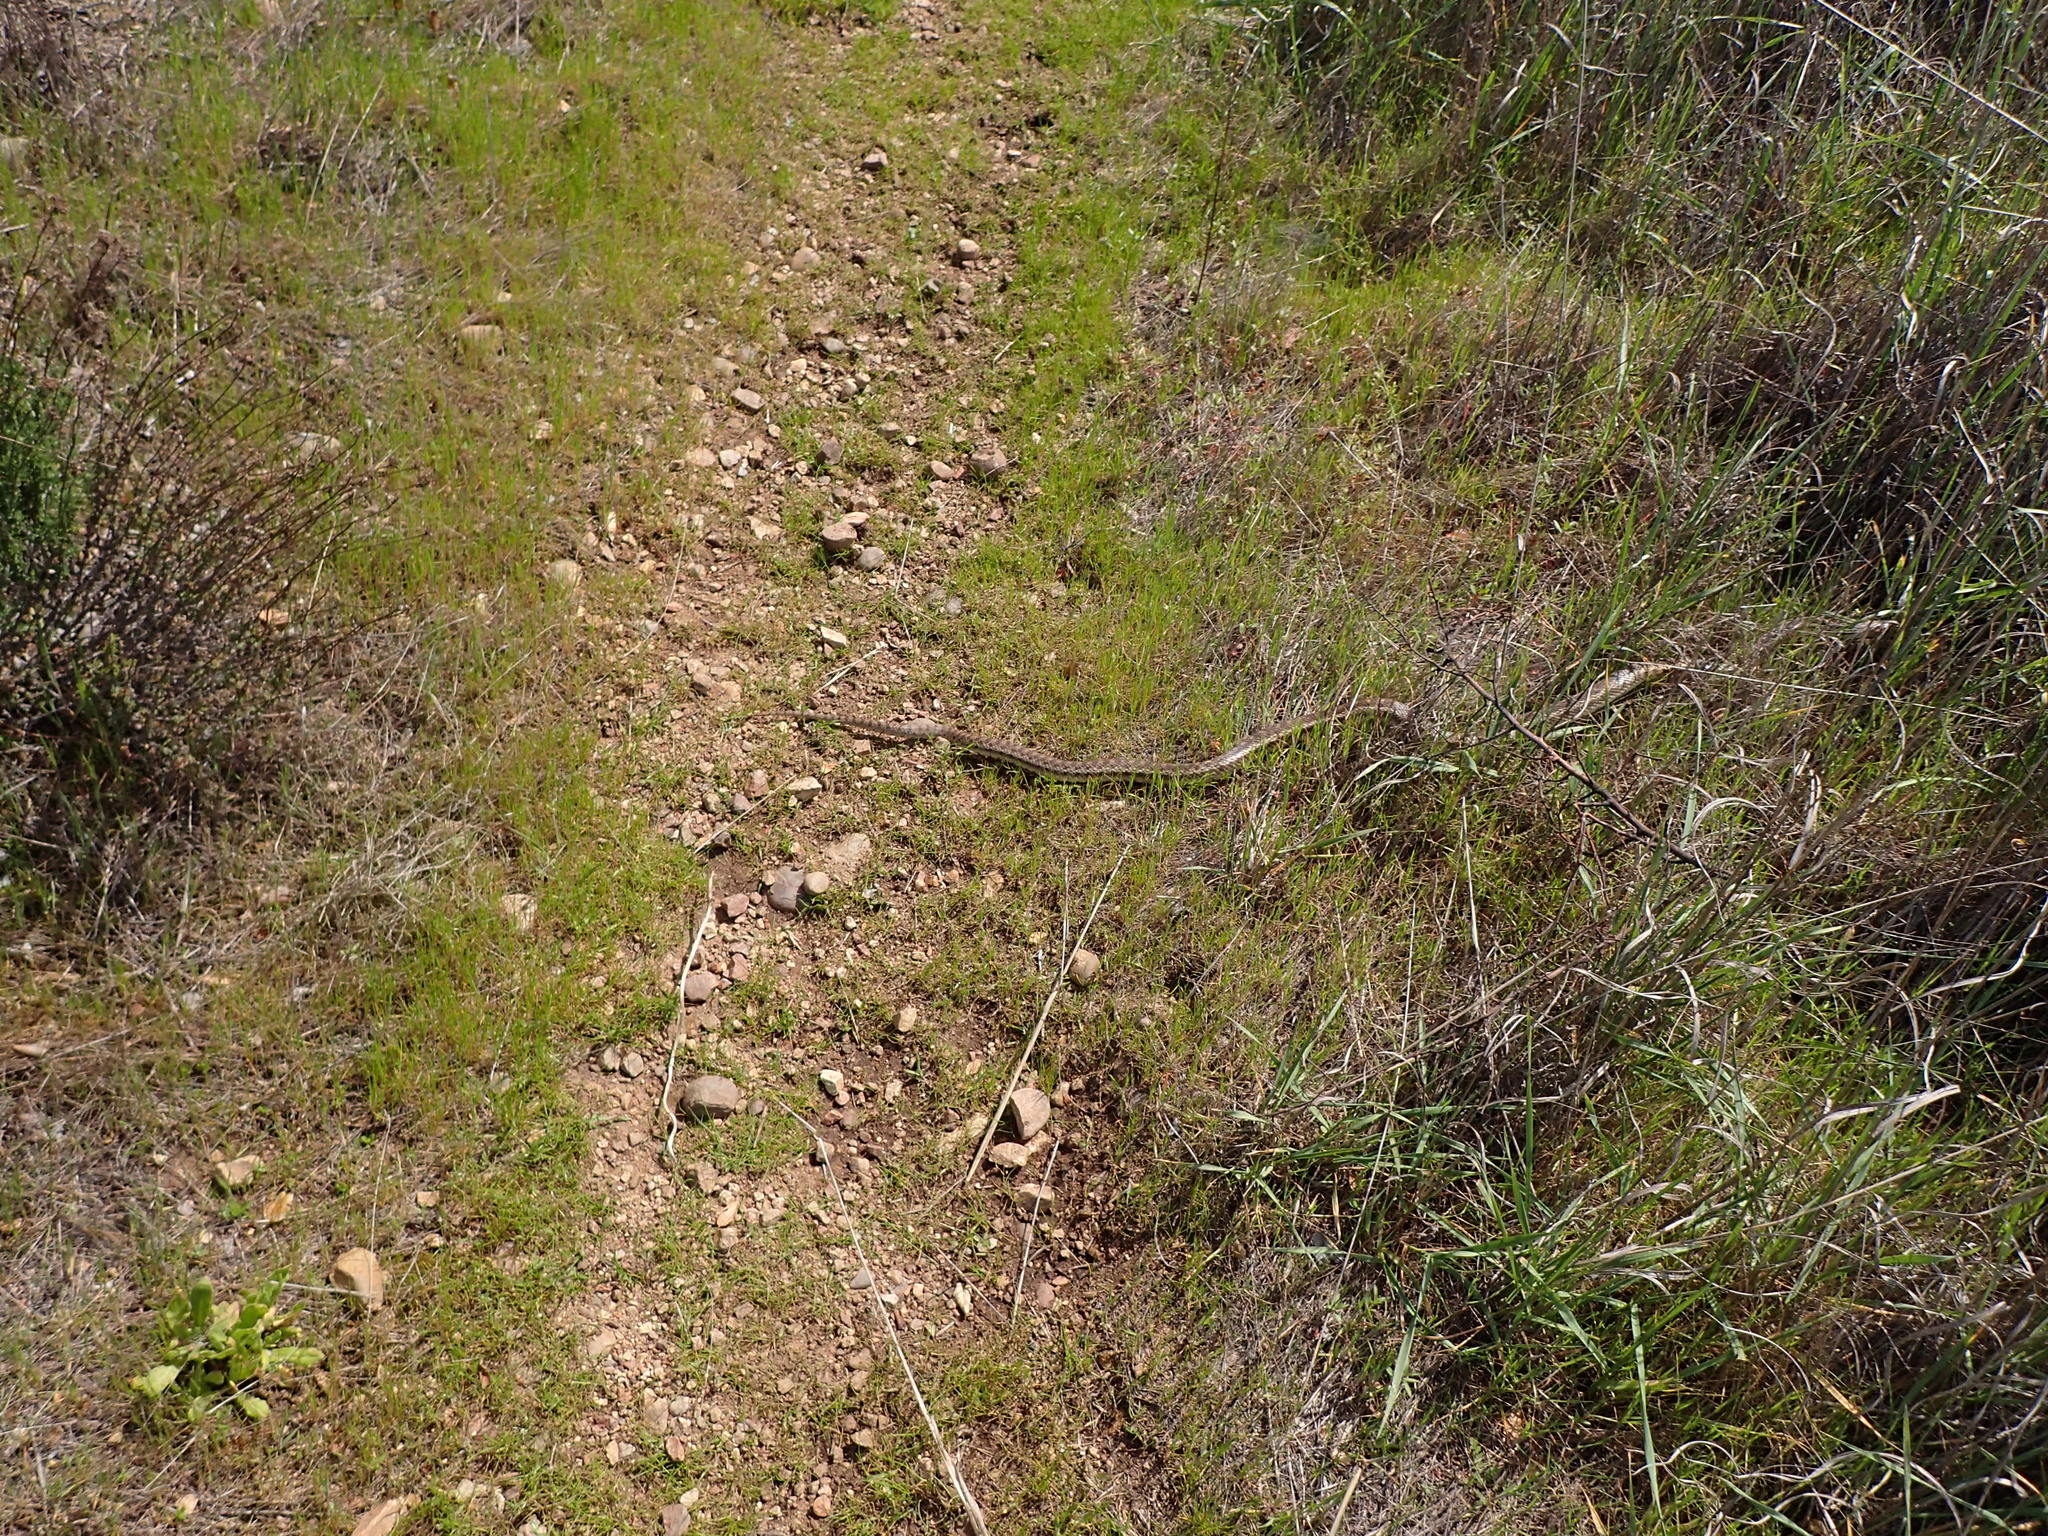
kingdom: Animalia
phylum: Chordata
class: Squamata
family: Colubridae
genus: Pituophis
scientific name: Pituophis catenifer
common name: Gopher snake
